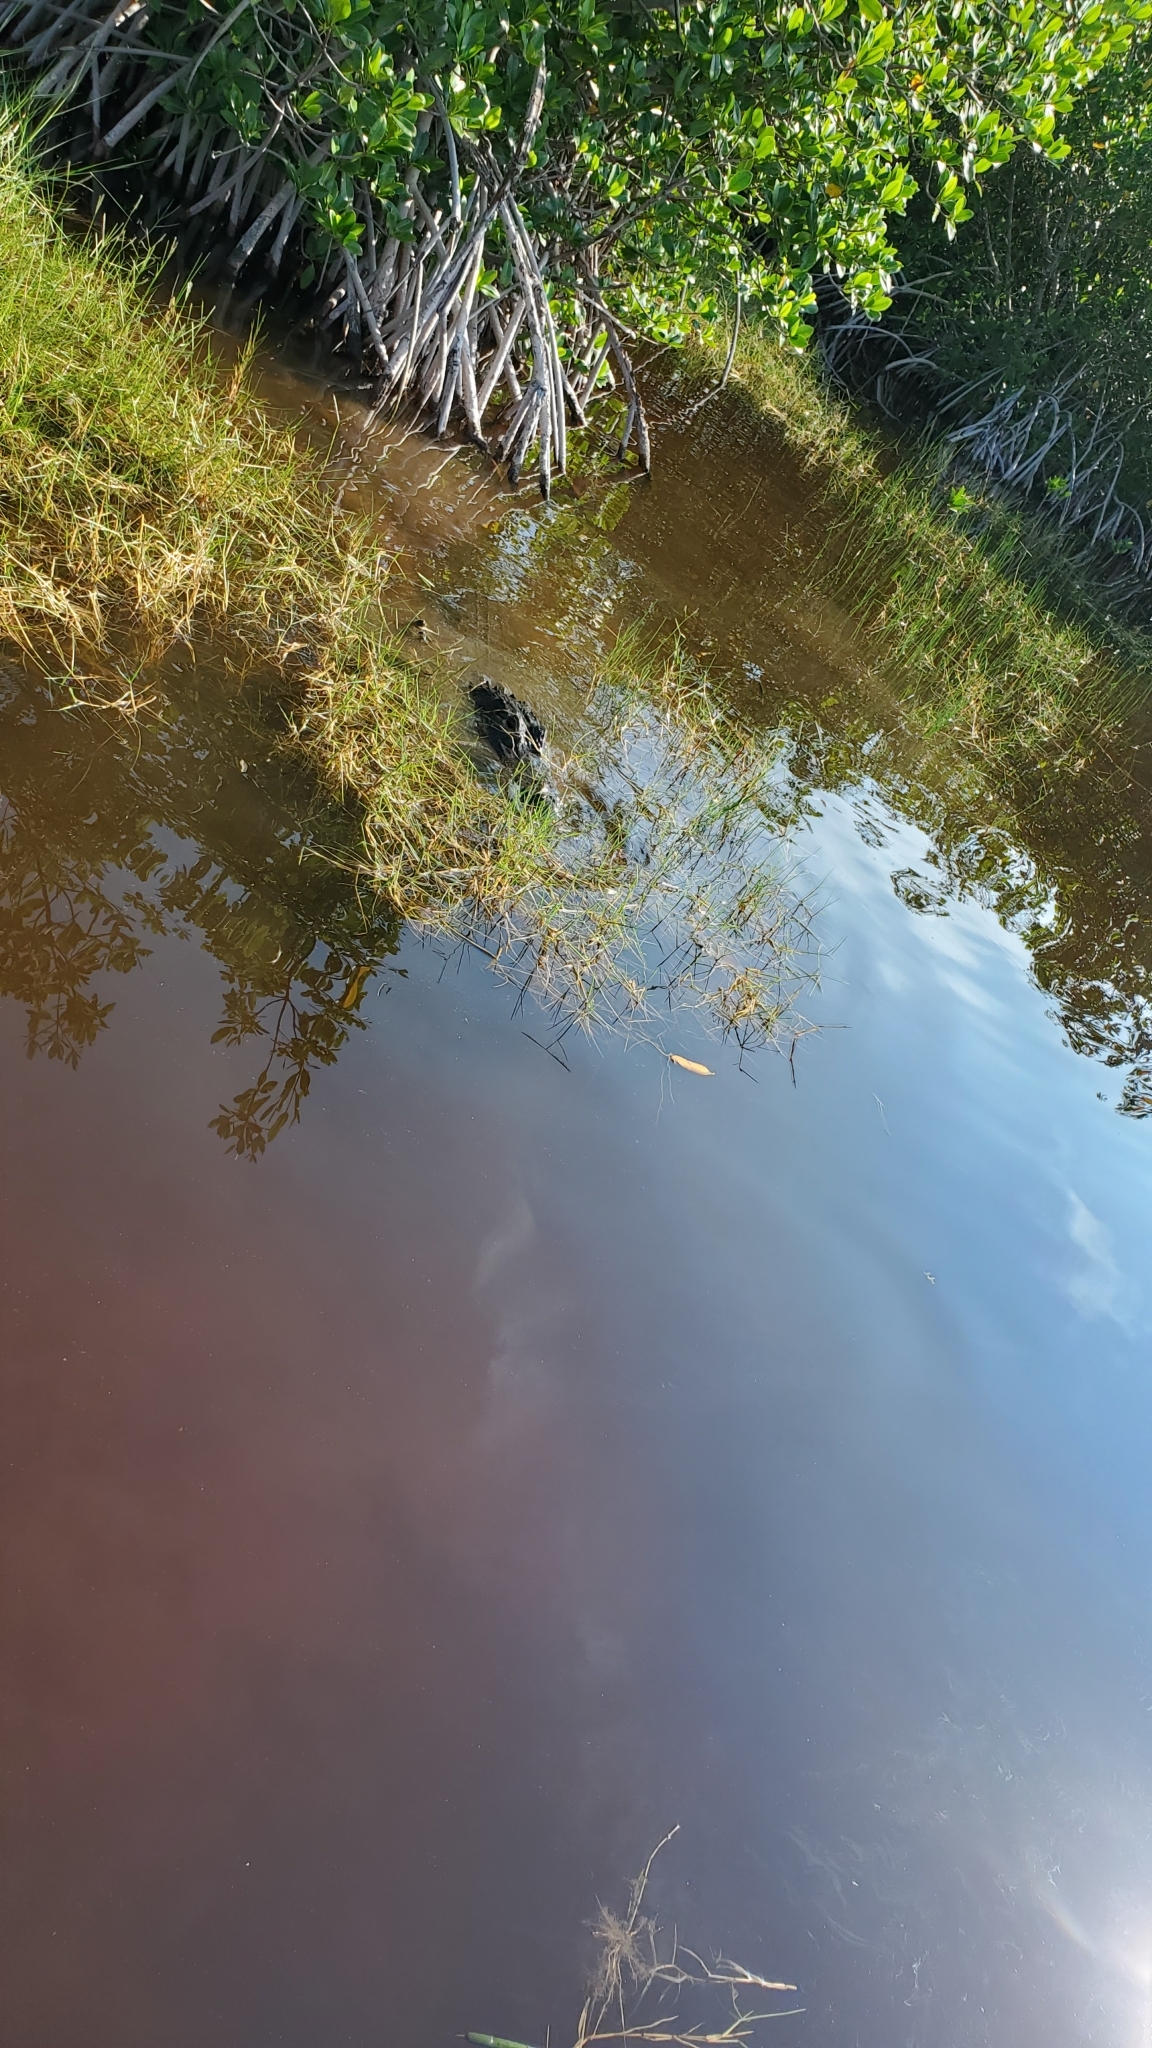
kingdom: Animalia
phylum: Chordata
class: Crocodylia
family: Alligatoridae
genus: Alligator
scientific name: Alligator mississippiensis
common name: American alligator
